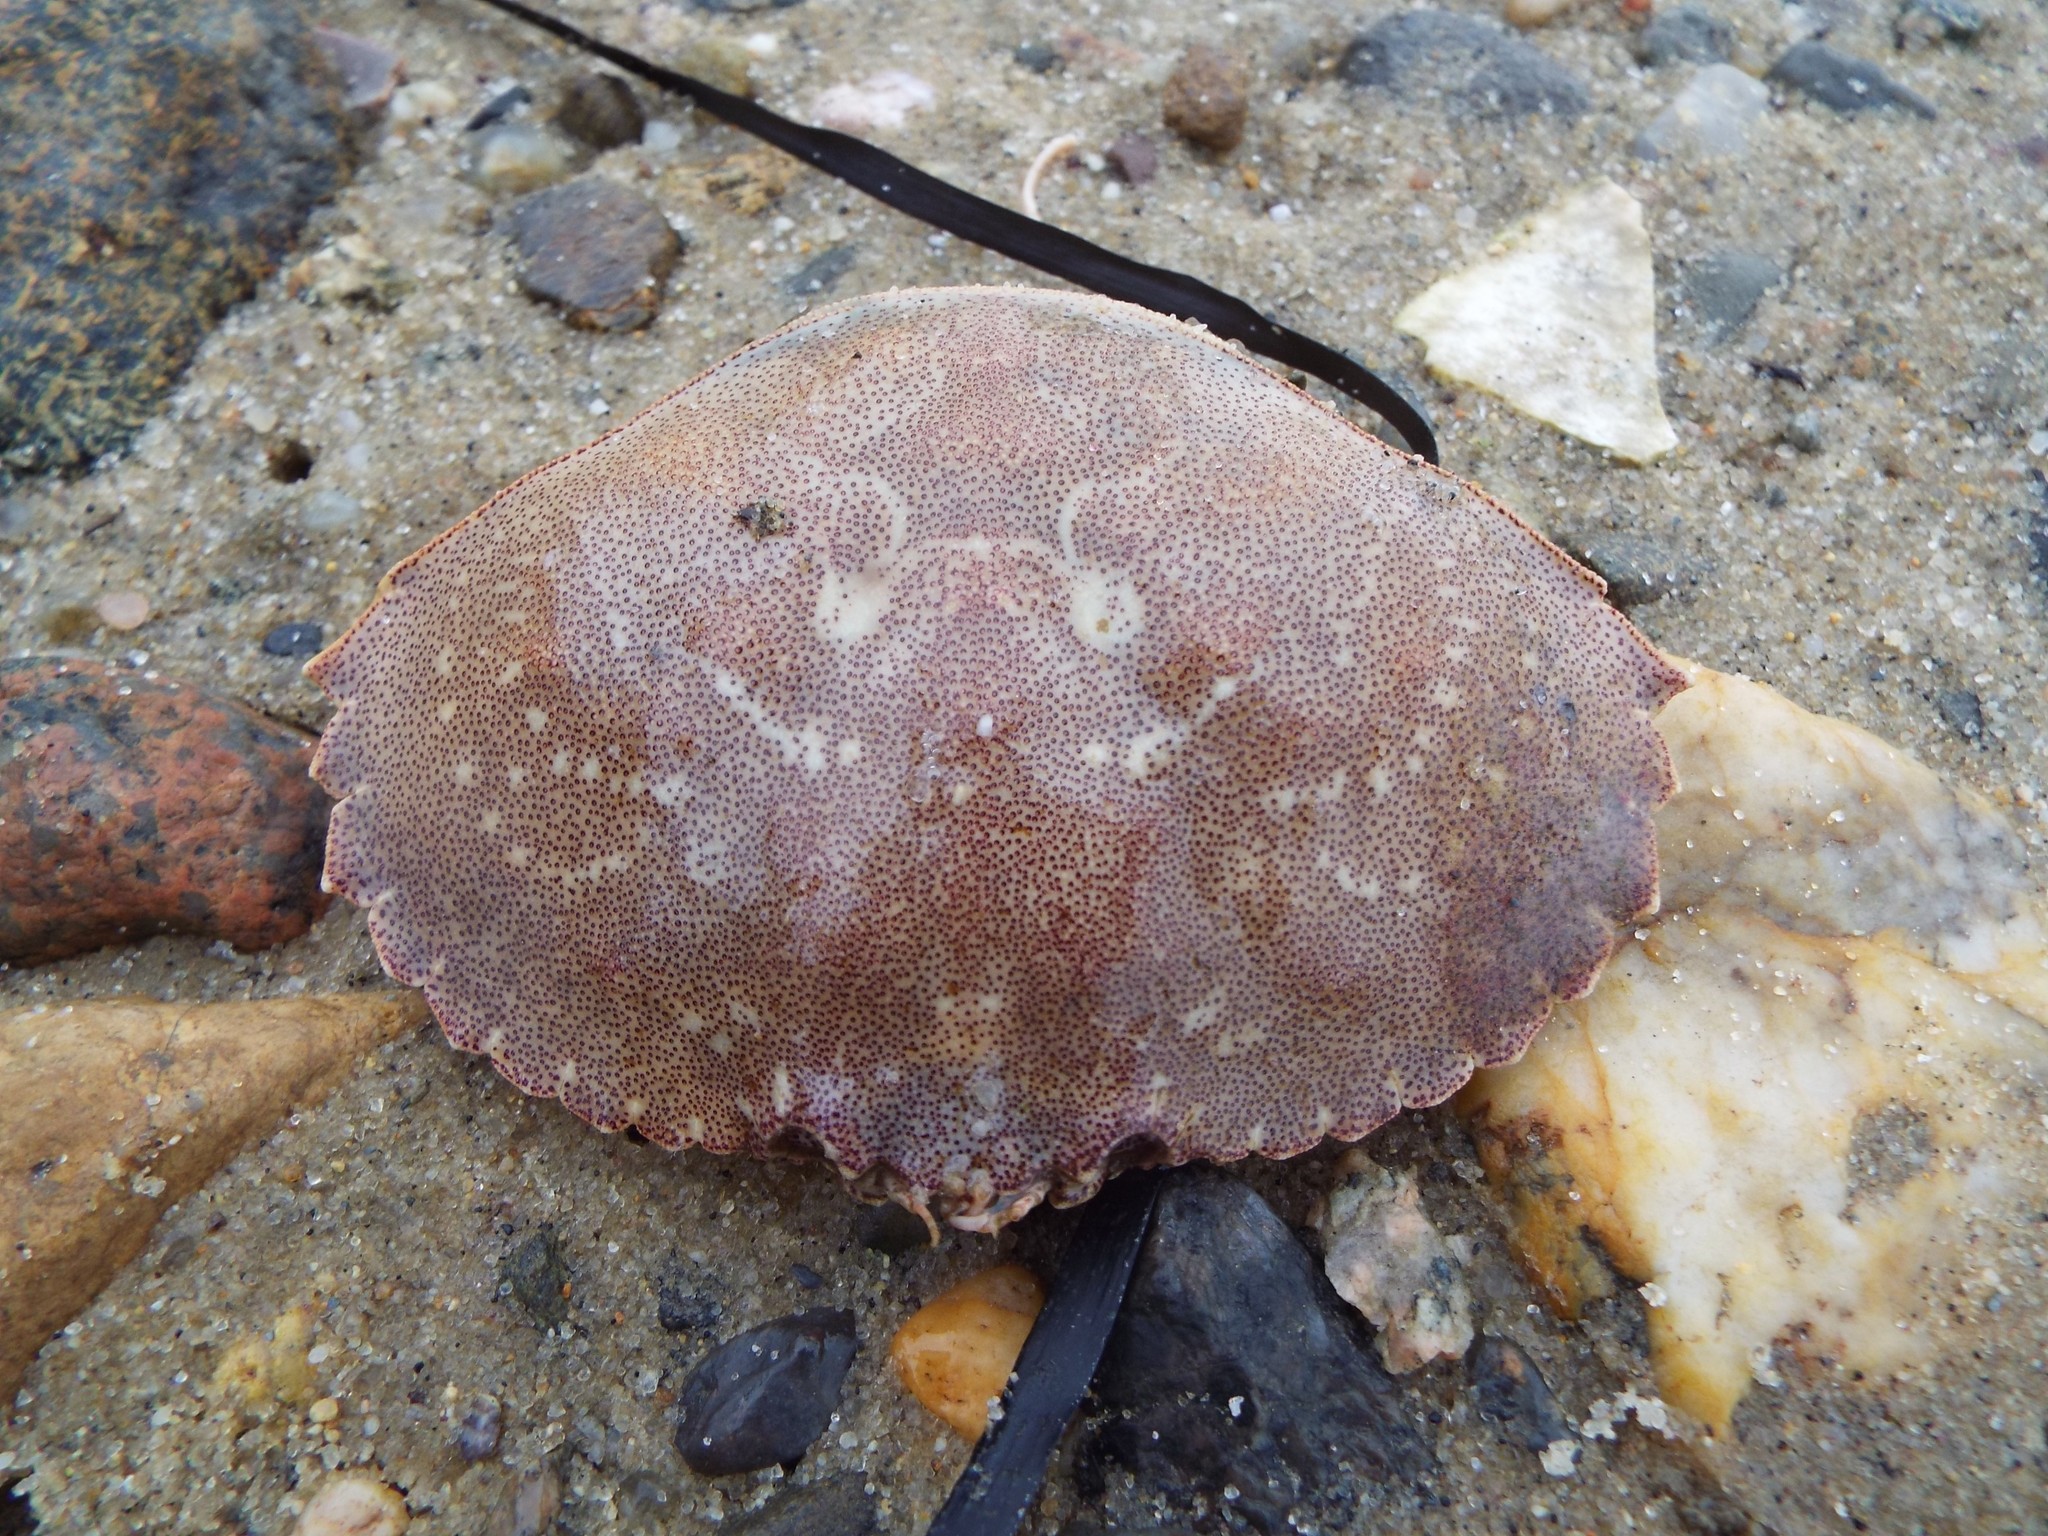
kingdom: Animalia
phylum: Arthropoda
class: Malacostraca
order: Decapoda
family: Cancridae
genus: Cancer
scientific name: Cancer irroratus
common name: Atlantic rock crab
